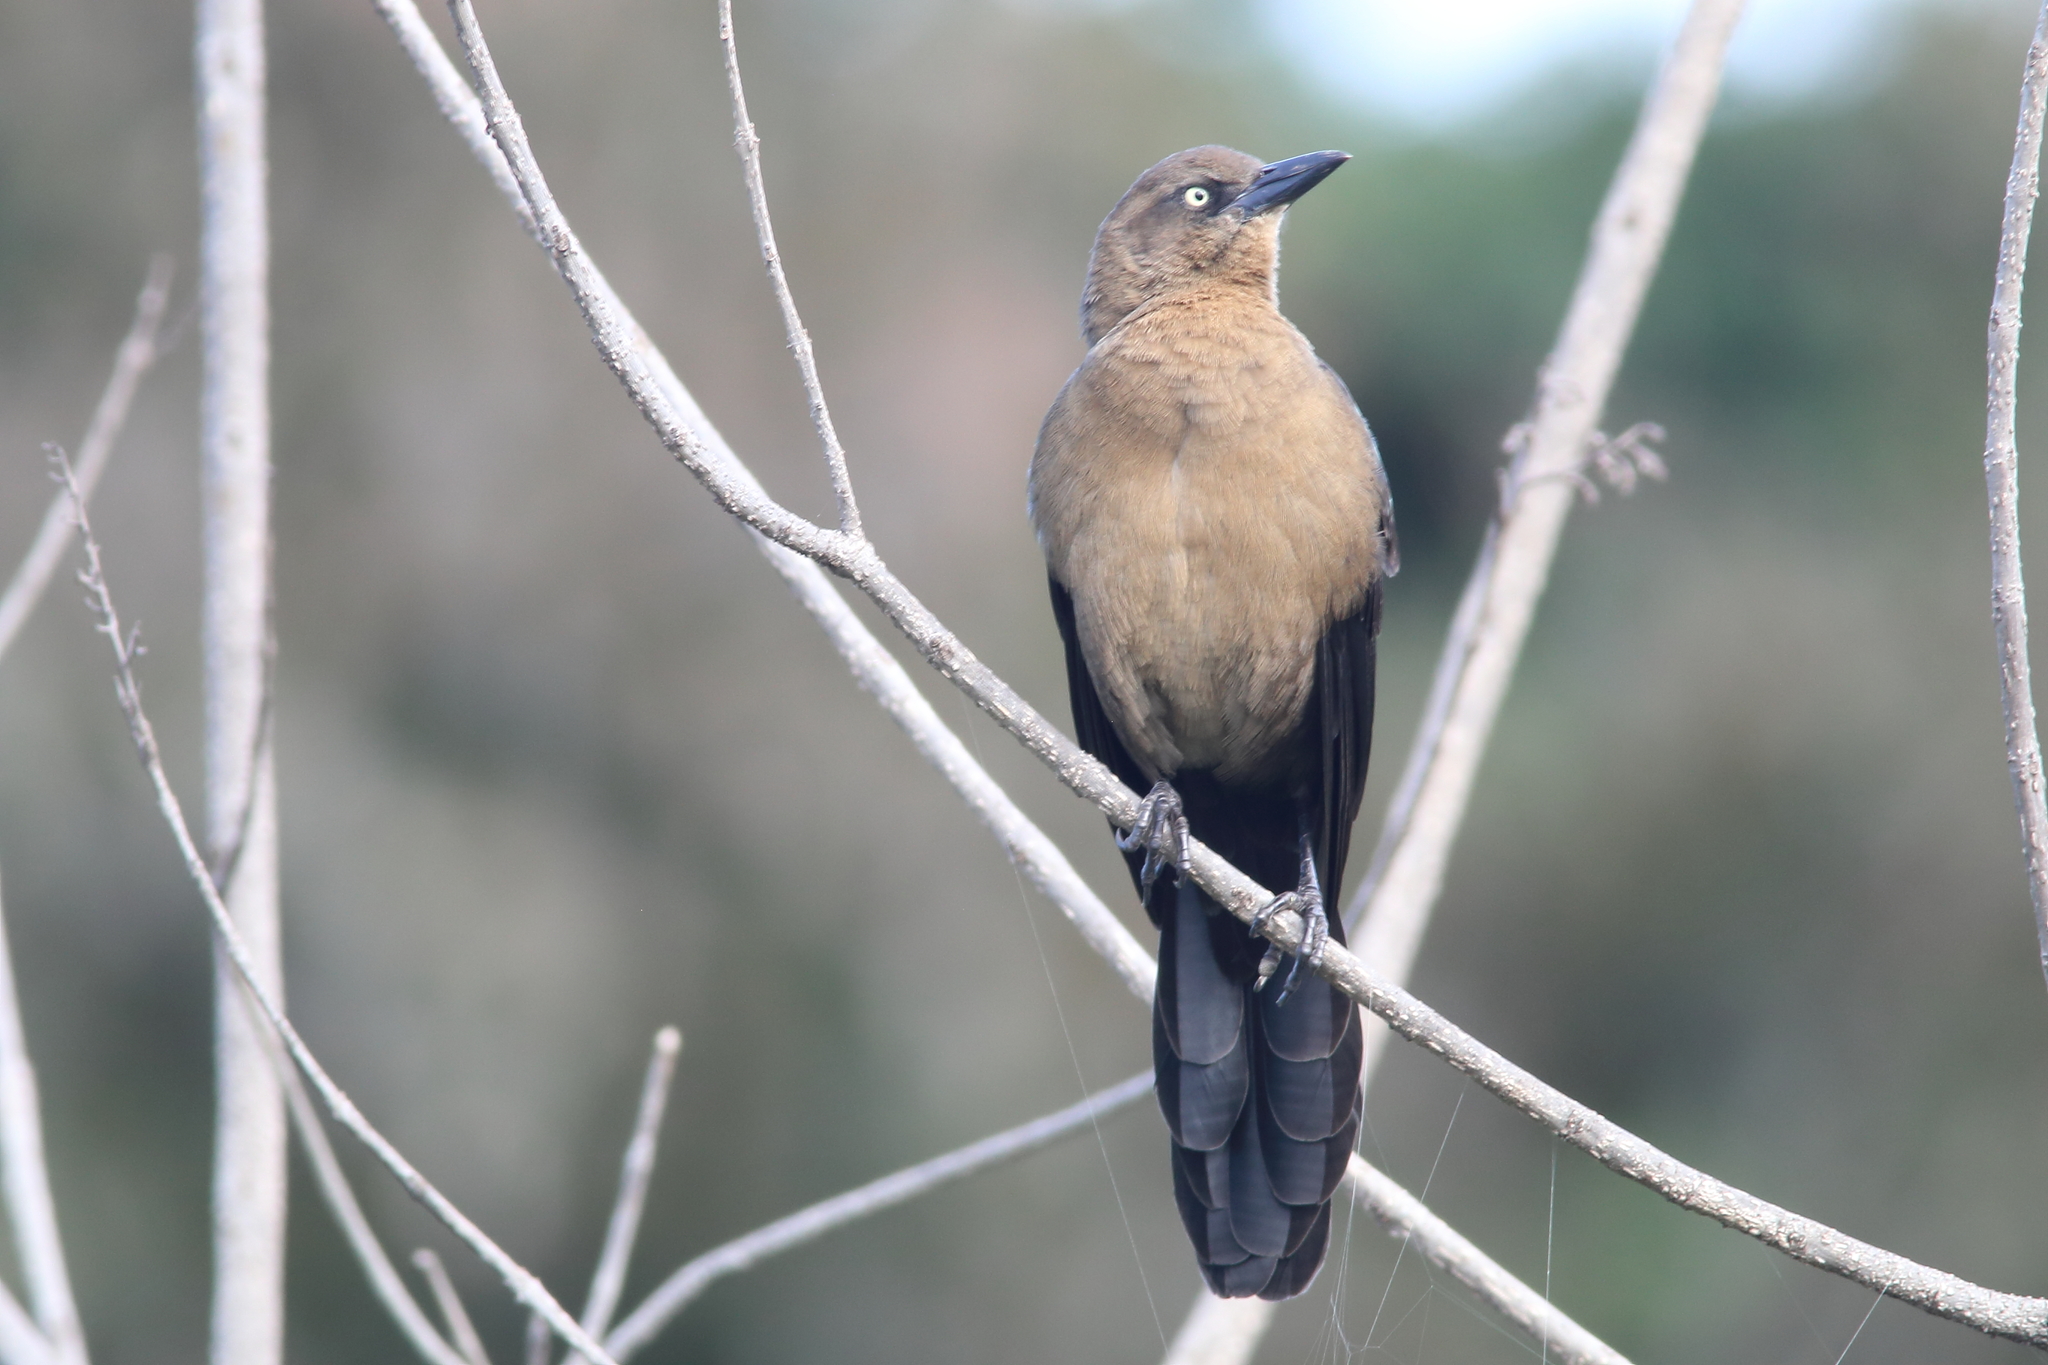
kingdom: Animalia
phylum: Chordata
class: Aves
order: Passeriformes
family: Icteridae
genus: Quiscalus
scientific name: Quiscalus mexicanus
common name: Great-tailed grackle
